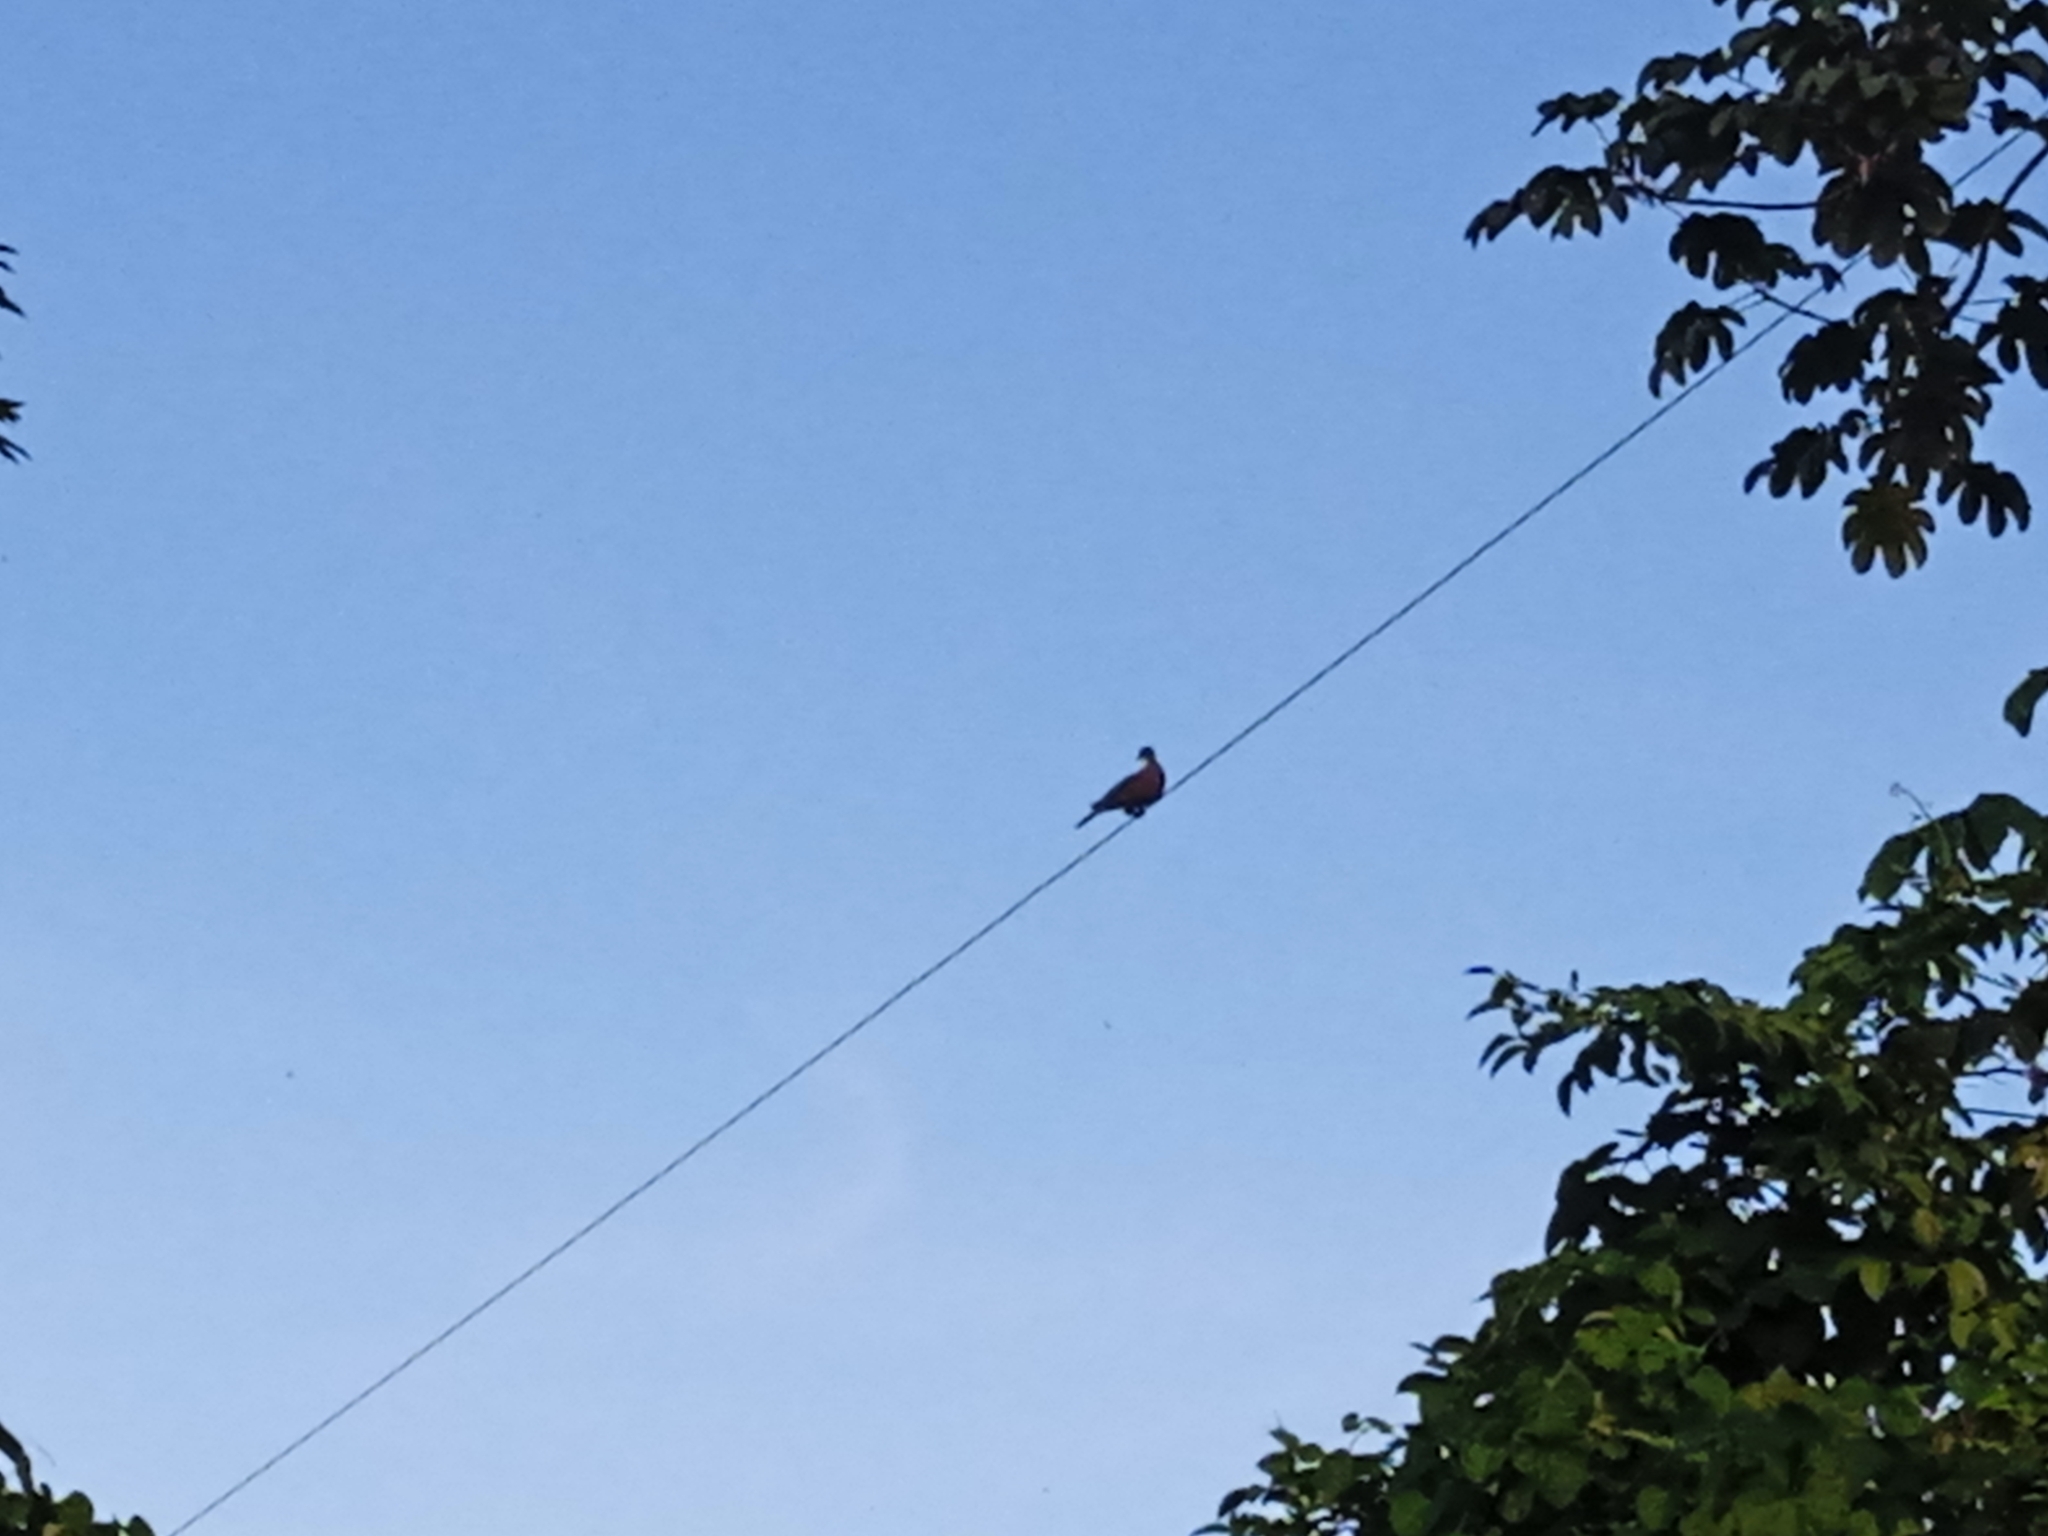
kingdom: Animalia
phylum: Chordata
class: Aves
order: Columbiformes
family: Columbidae
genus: Patagioenas
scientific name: Patagioenas cayennensis
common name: Pale-vented pigeon
